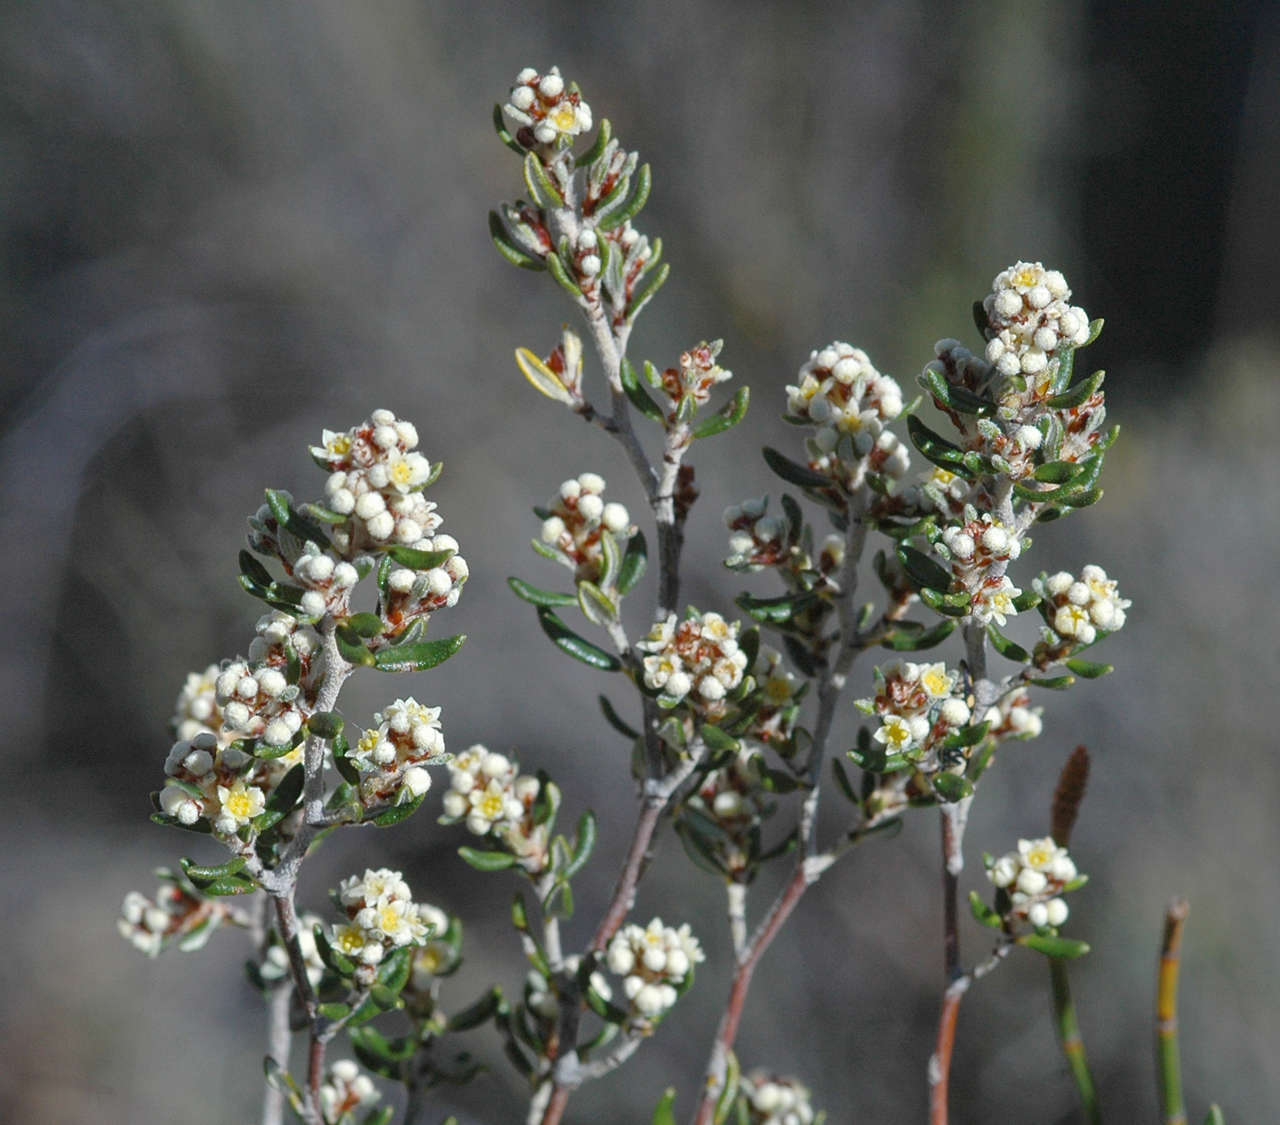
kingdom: Plantae
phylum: Tracheophyta
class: Magnoliopsida
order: Rosales
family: Rhamnaceae
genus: Spyridium
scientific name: Spyridium subochreatum
